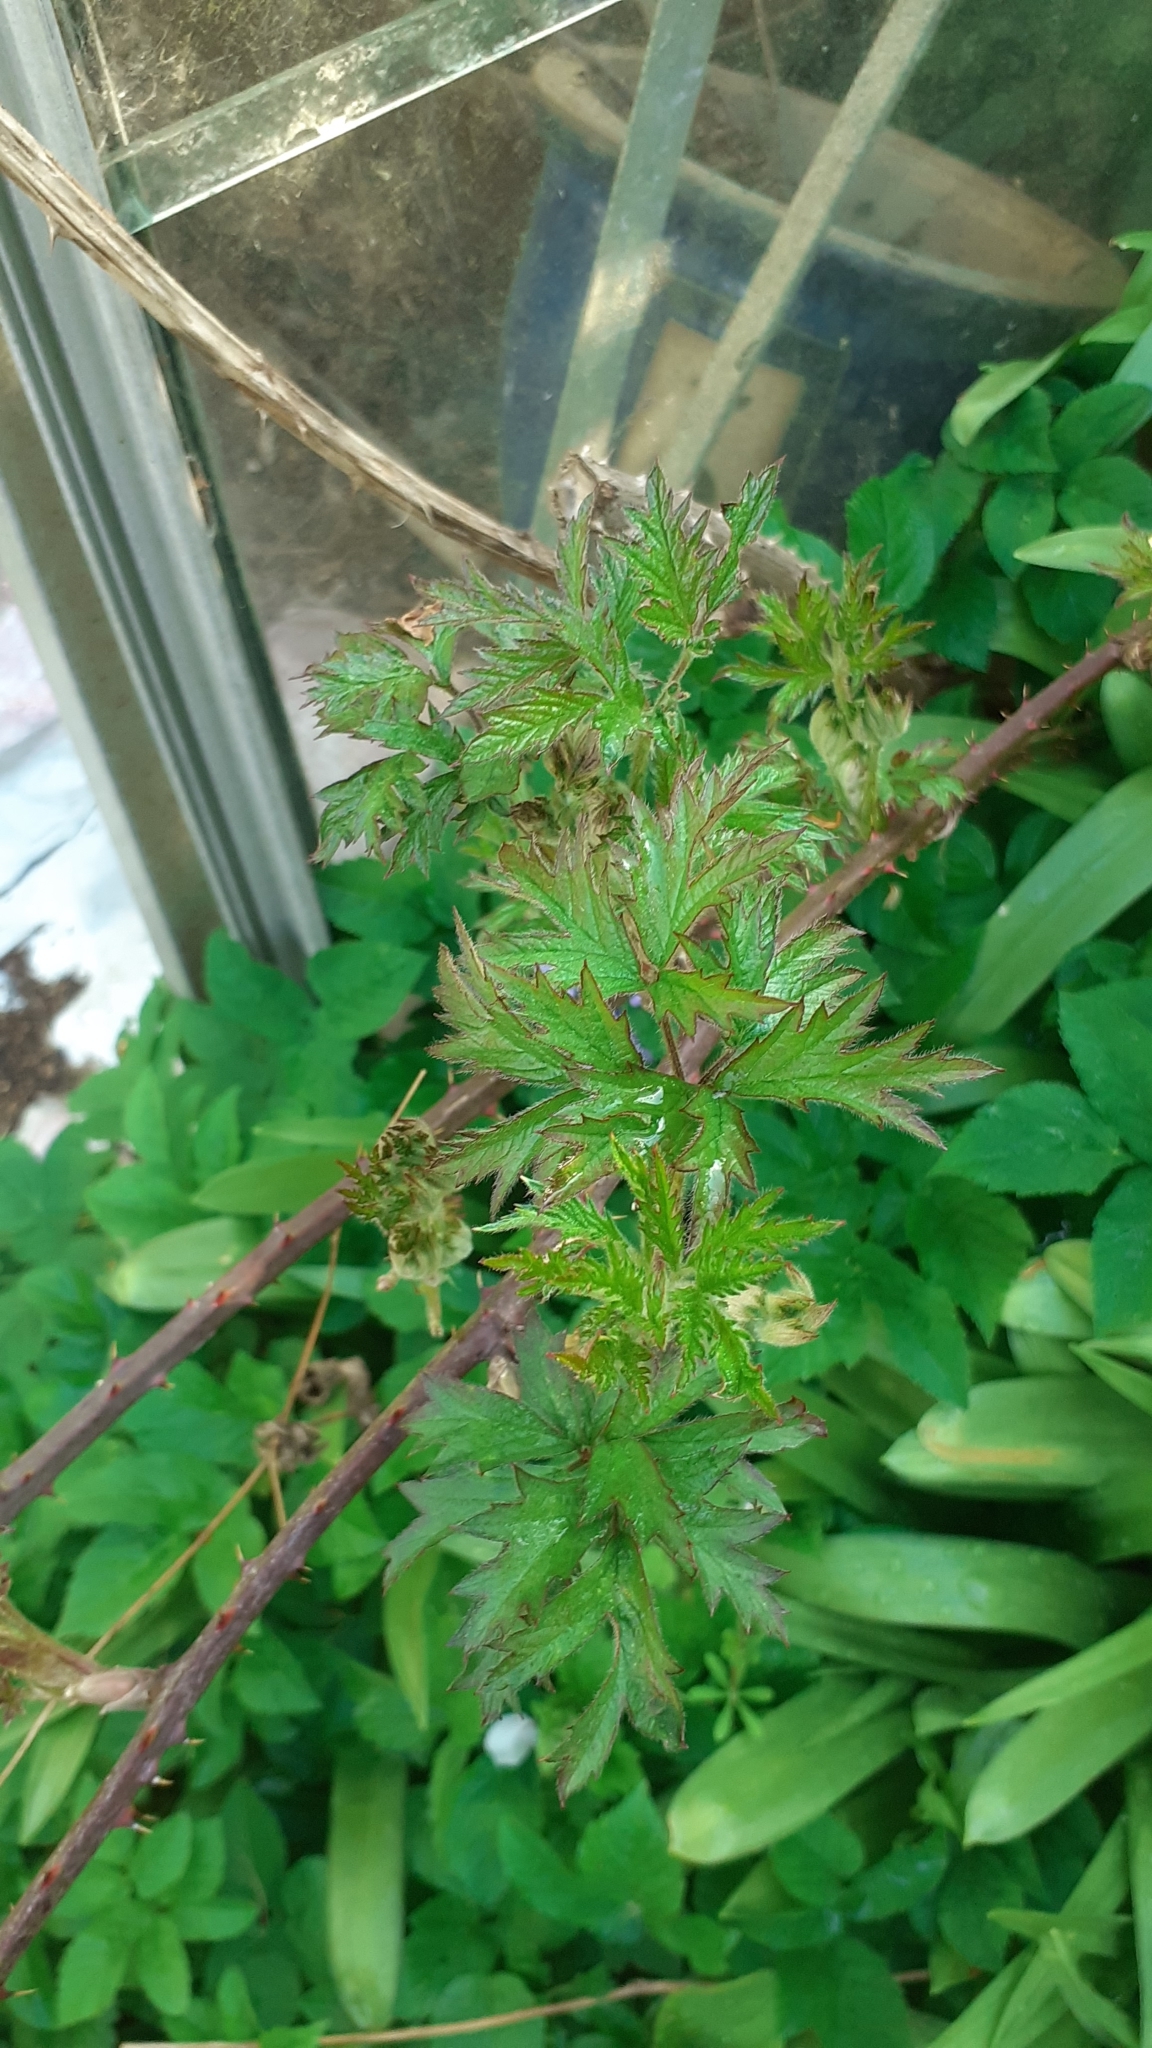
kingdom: Plantae
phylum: Tracheophyta
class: Magnoliopsida
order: Rosales
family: Rosaceae
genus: Rubus
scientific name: Rubus laciniatus
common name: Evergreen blackberry
